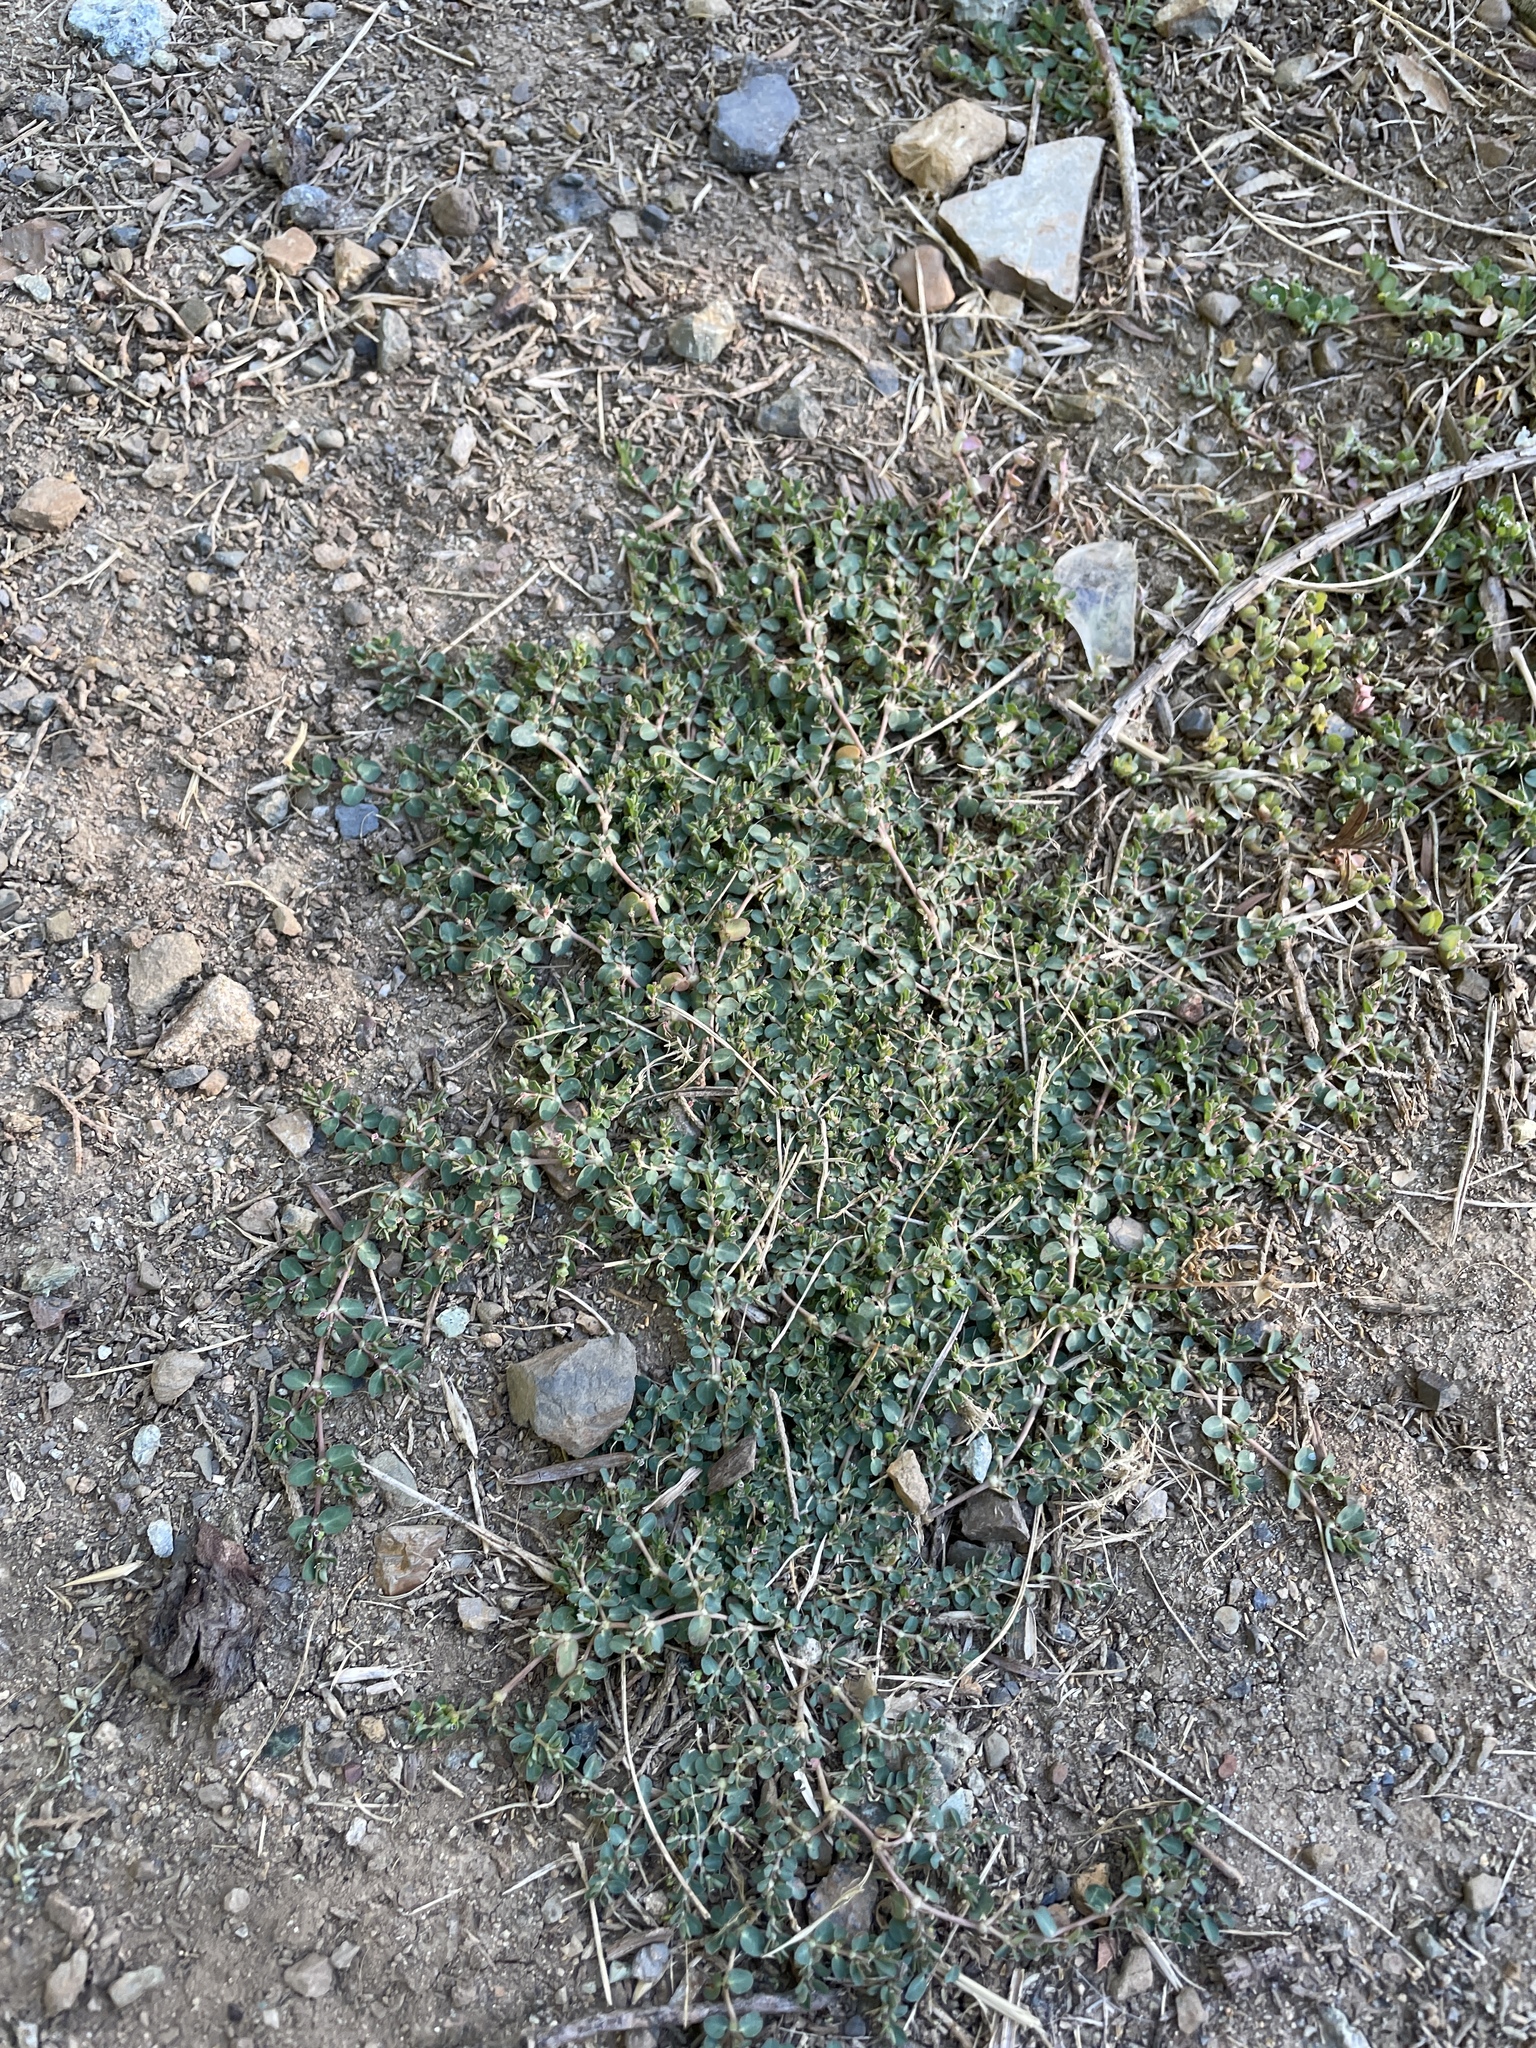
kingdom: Plantae
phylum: Tracheophyta
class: Magnoliopsida
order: Malpighiales
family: Euphorbiaceae
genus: Euphorbia
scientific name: Euphorbia serpens
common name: Matted sandmat
